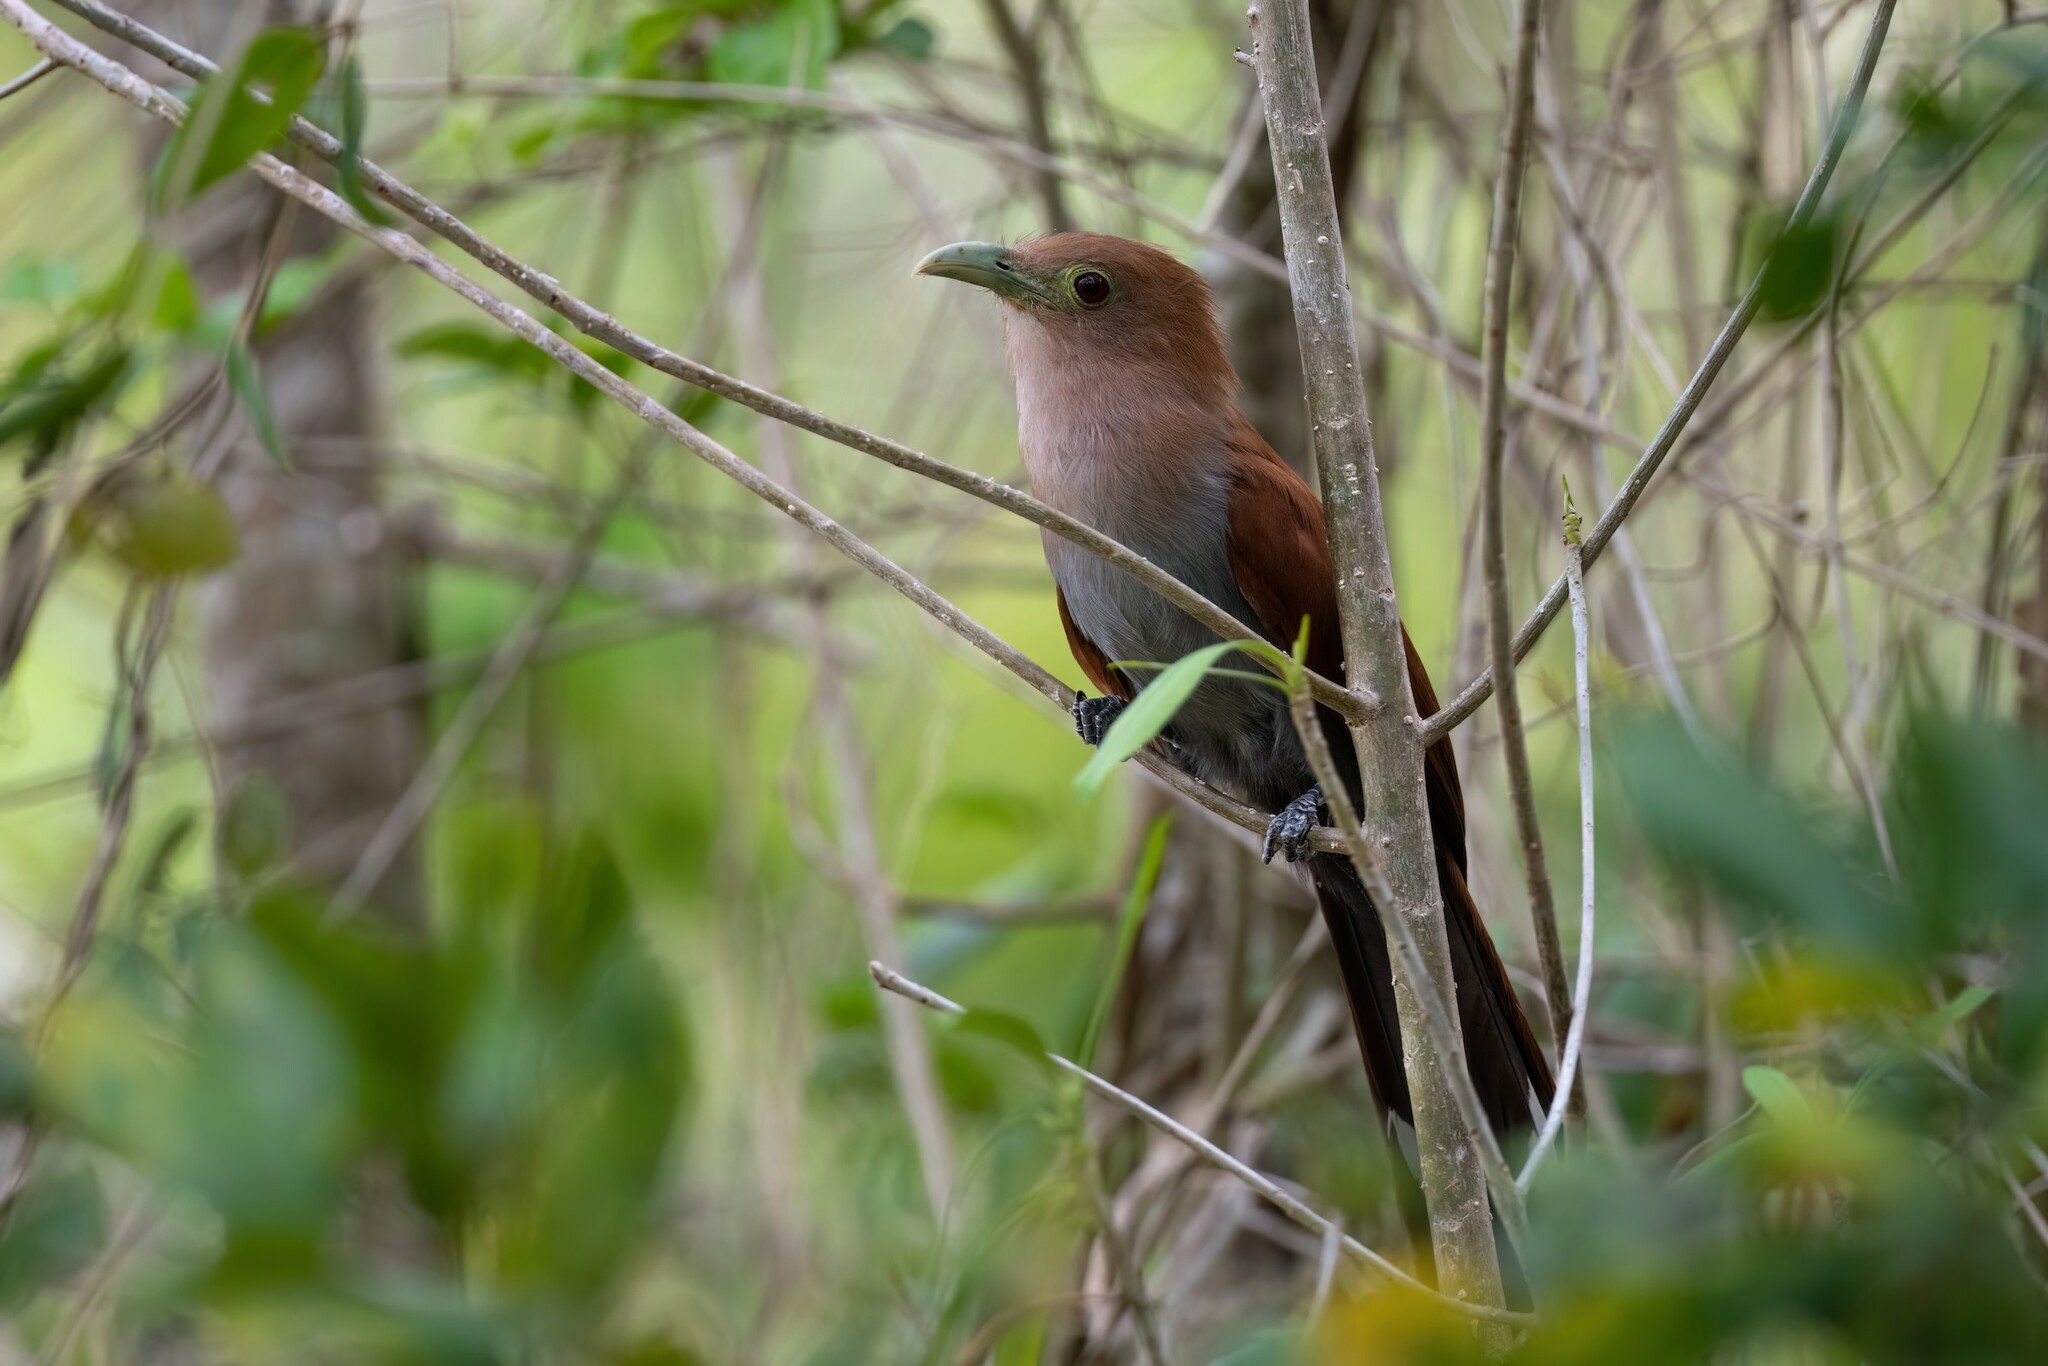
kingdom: Animalia
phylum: Chordata
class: Aves
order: Cuculiformes
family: Cuculidae
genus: Piaya
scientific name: Piaya cayana
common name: Squirrel cuckoo
